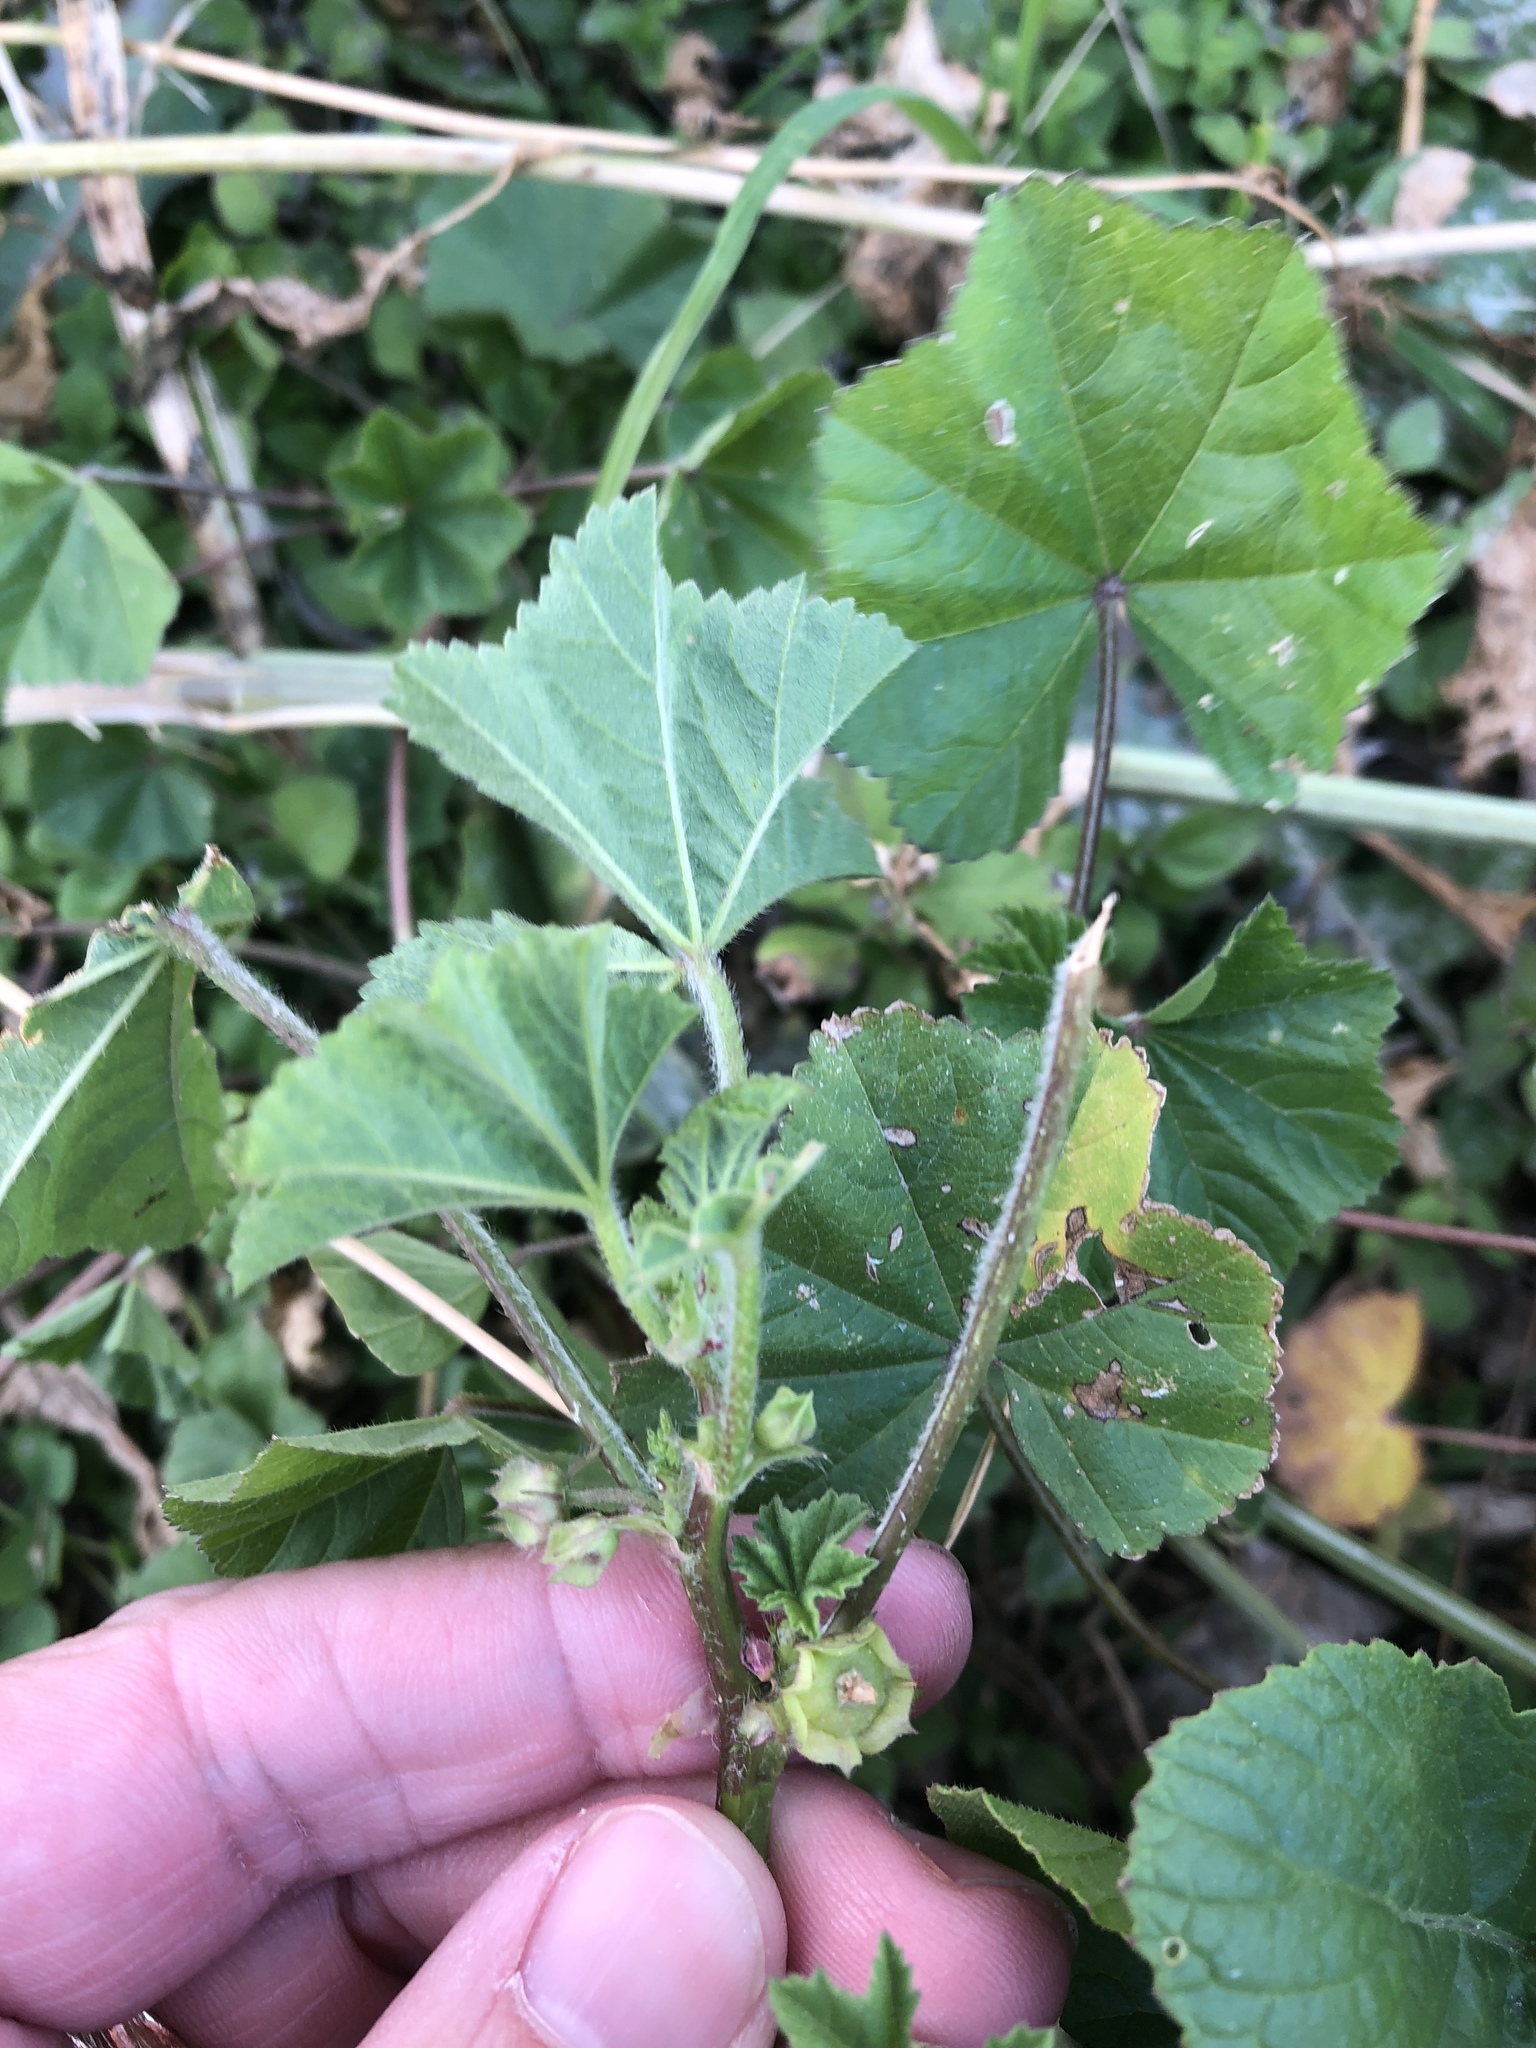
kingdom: Plantae
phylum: Tracheophyta
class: Magnoliopsida
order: Malvales
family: Malvaceae
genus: Malva
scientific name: Malva parviflora
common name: Least mallow
